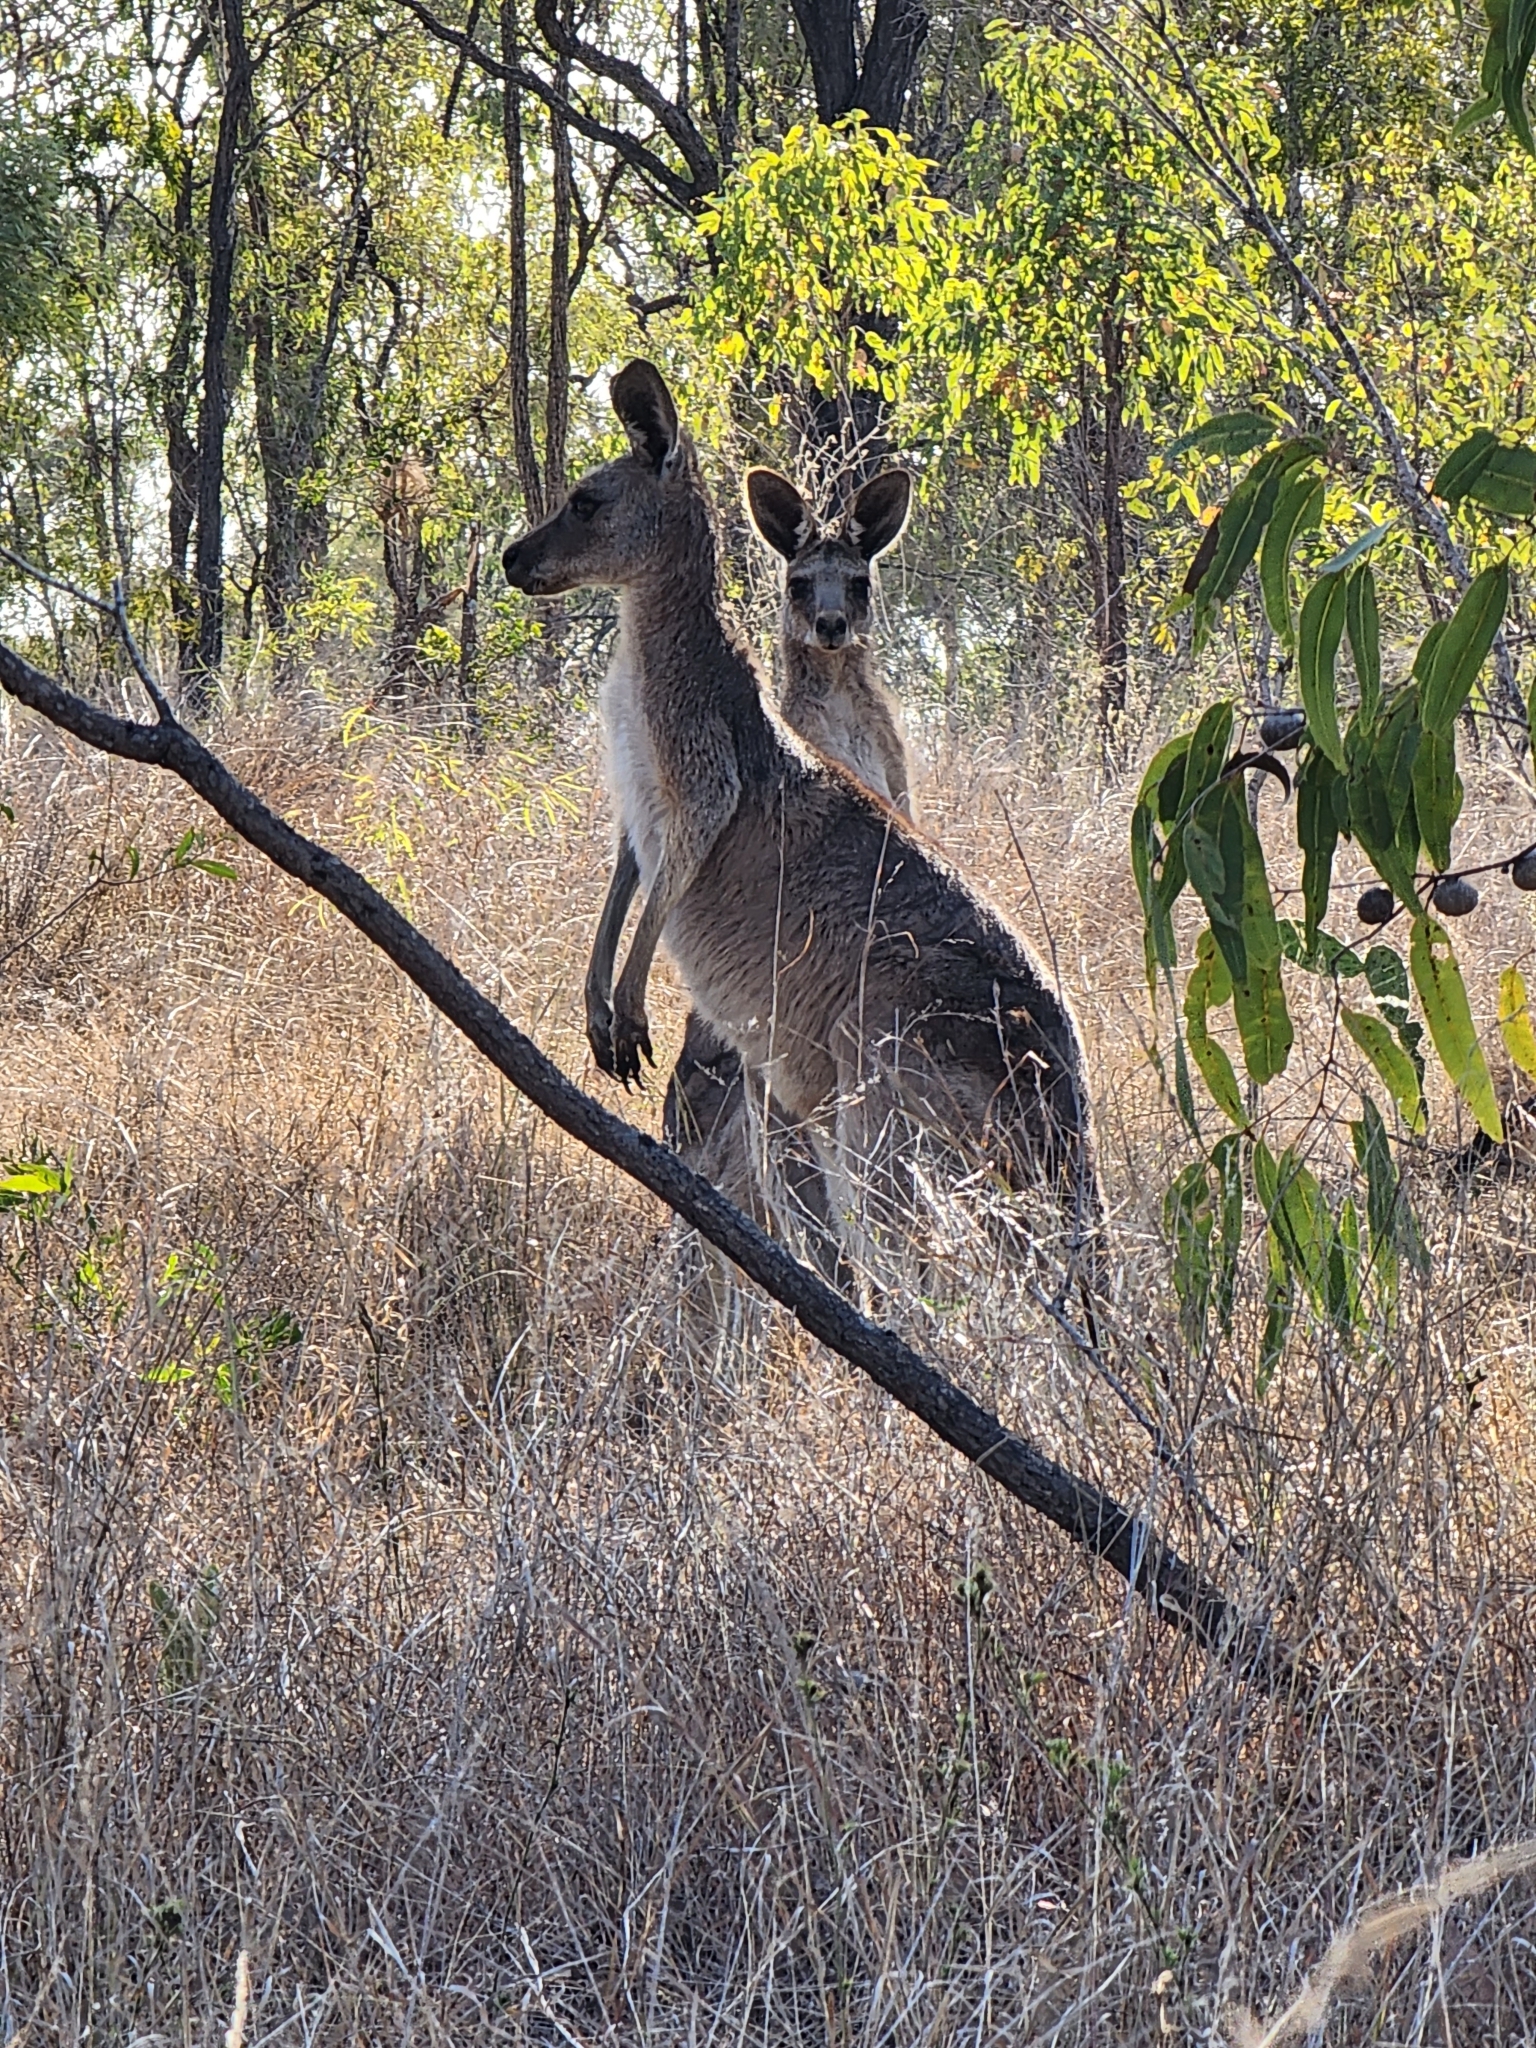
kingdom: Animalia
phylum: Chordata
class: Mammalia
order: Diprotodontia
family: Macropodidae
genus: Macropus
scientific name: Macropus giganteus
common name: Eastern grey kangaroo
